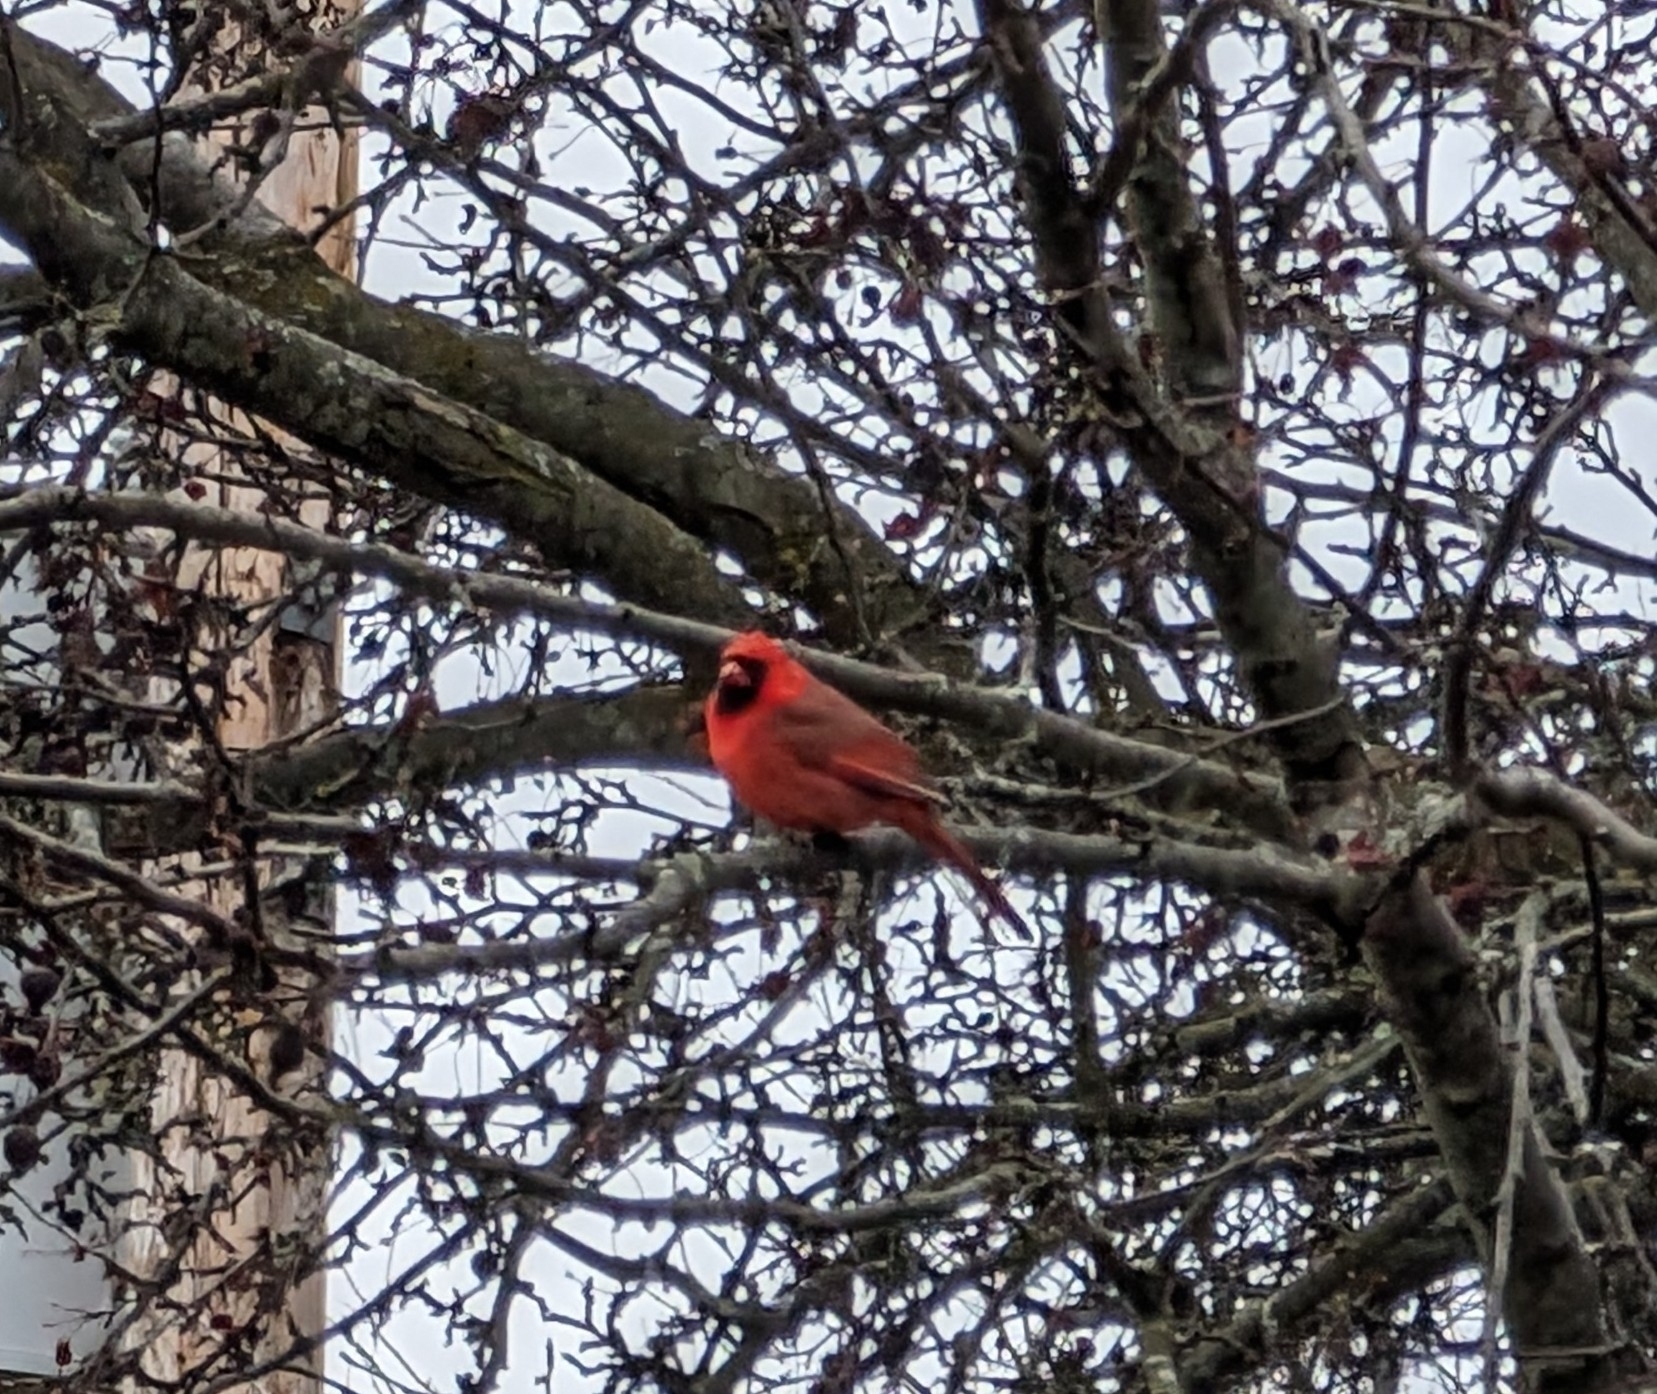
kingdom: Animalia
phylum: Chordata
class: Aves
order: Passeriformes
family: Cardinalidae
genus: Cardinalis
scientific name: Cardinalis cardinalis
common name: Northern cardinal
